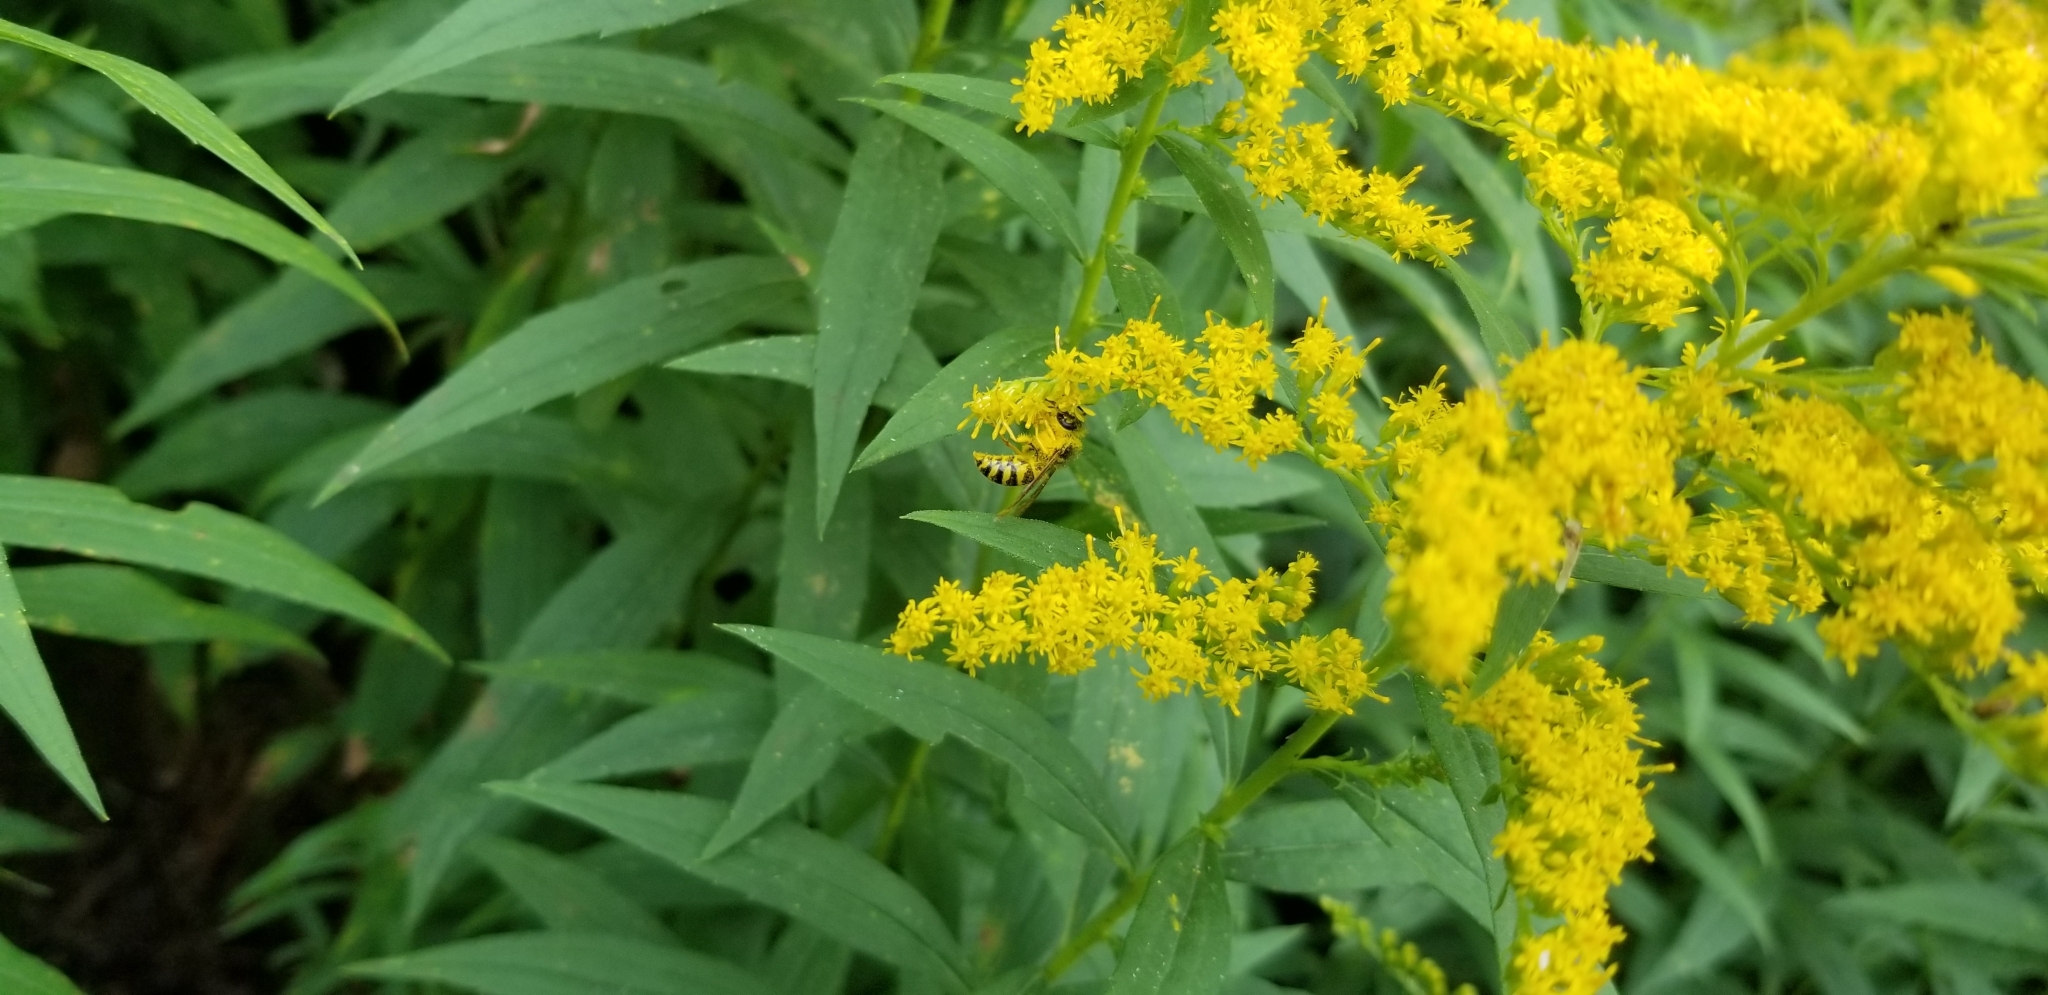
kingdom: Animalia
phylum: Arthropoda
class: Insecta
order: Hymenoptera
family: Vespidae
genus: Vespula
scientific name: Vespula
